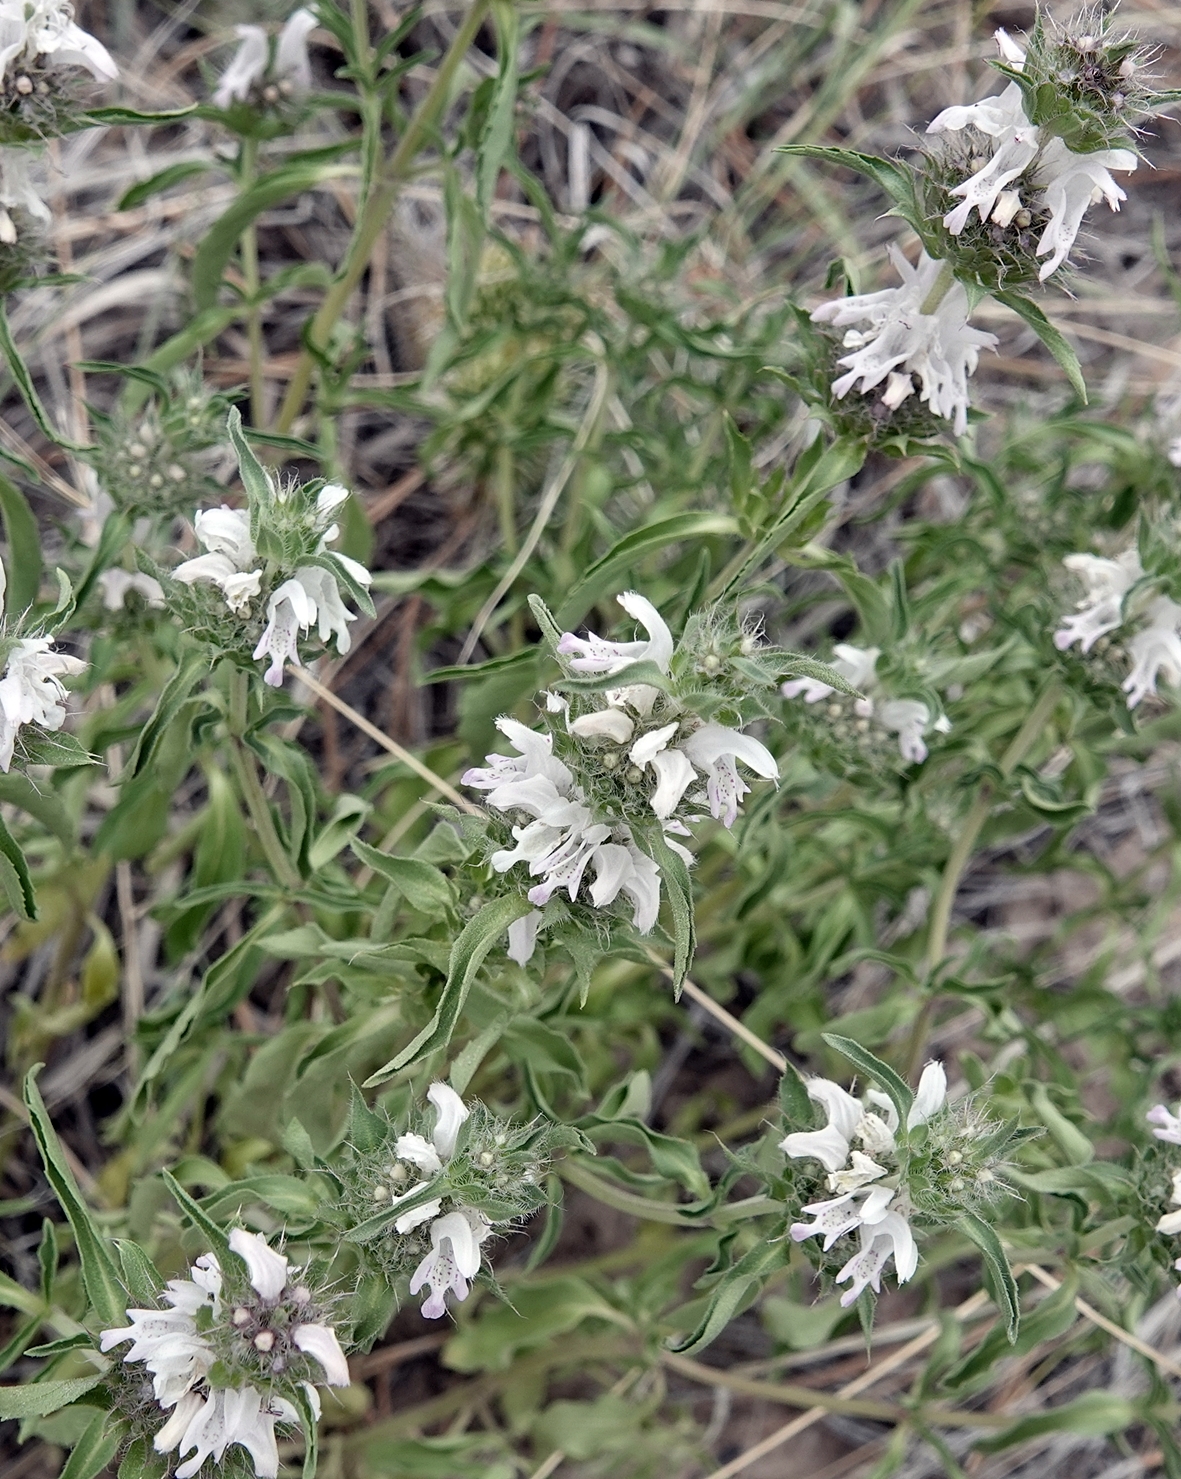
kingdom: Plantae
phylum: Tracheophyta
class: Magnoliopsida
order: Lamiales
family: Lamiaceae
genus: Monarda
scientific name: Monarda pectinata
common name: Plains beebalm
